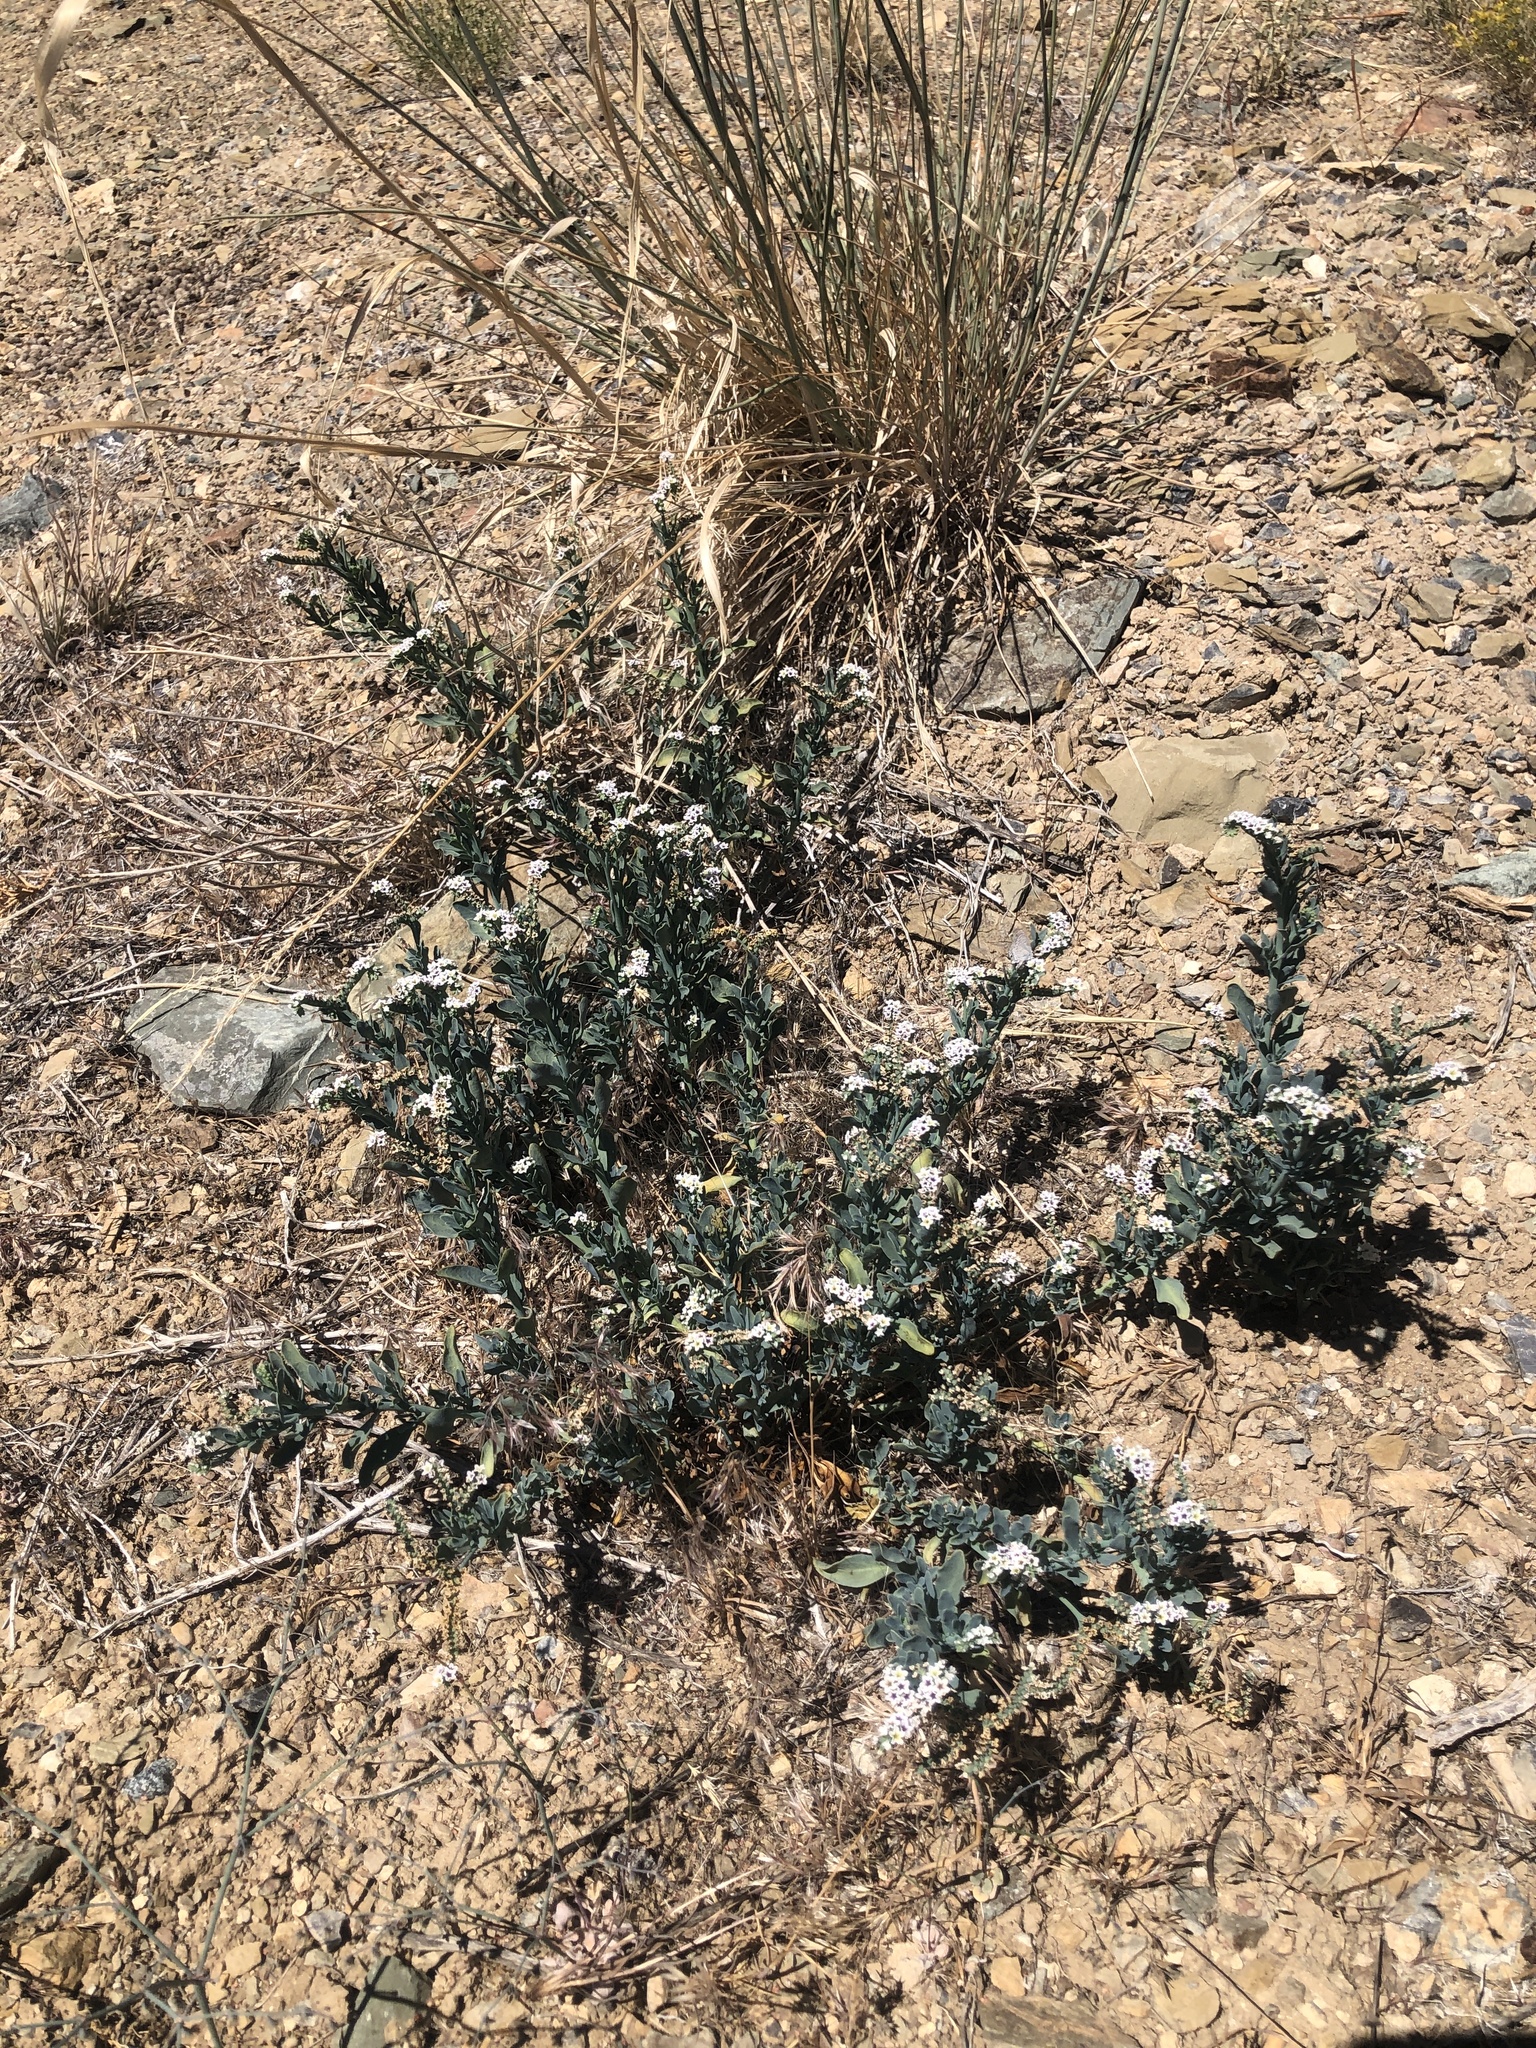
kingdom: Plantae
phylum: Tracheophyta
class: Magnoliopsida
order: Boraginales
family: Heliotropiaceae
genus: Heliotropium
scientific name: Heliotropium curassavicum
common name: Seaside heliotrope
